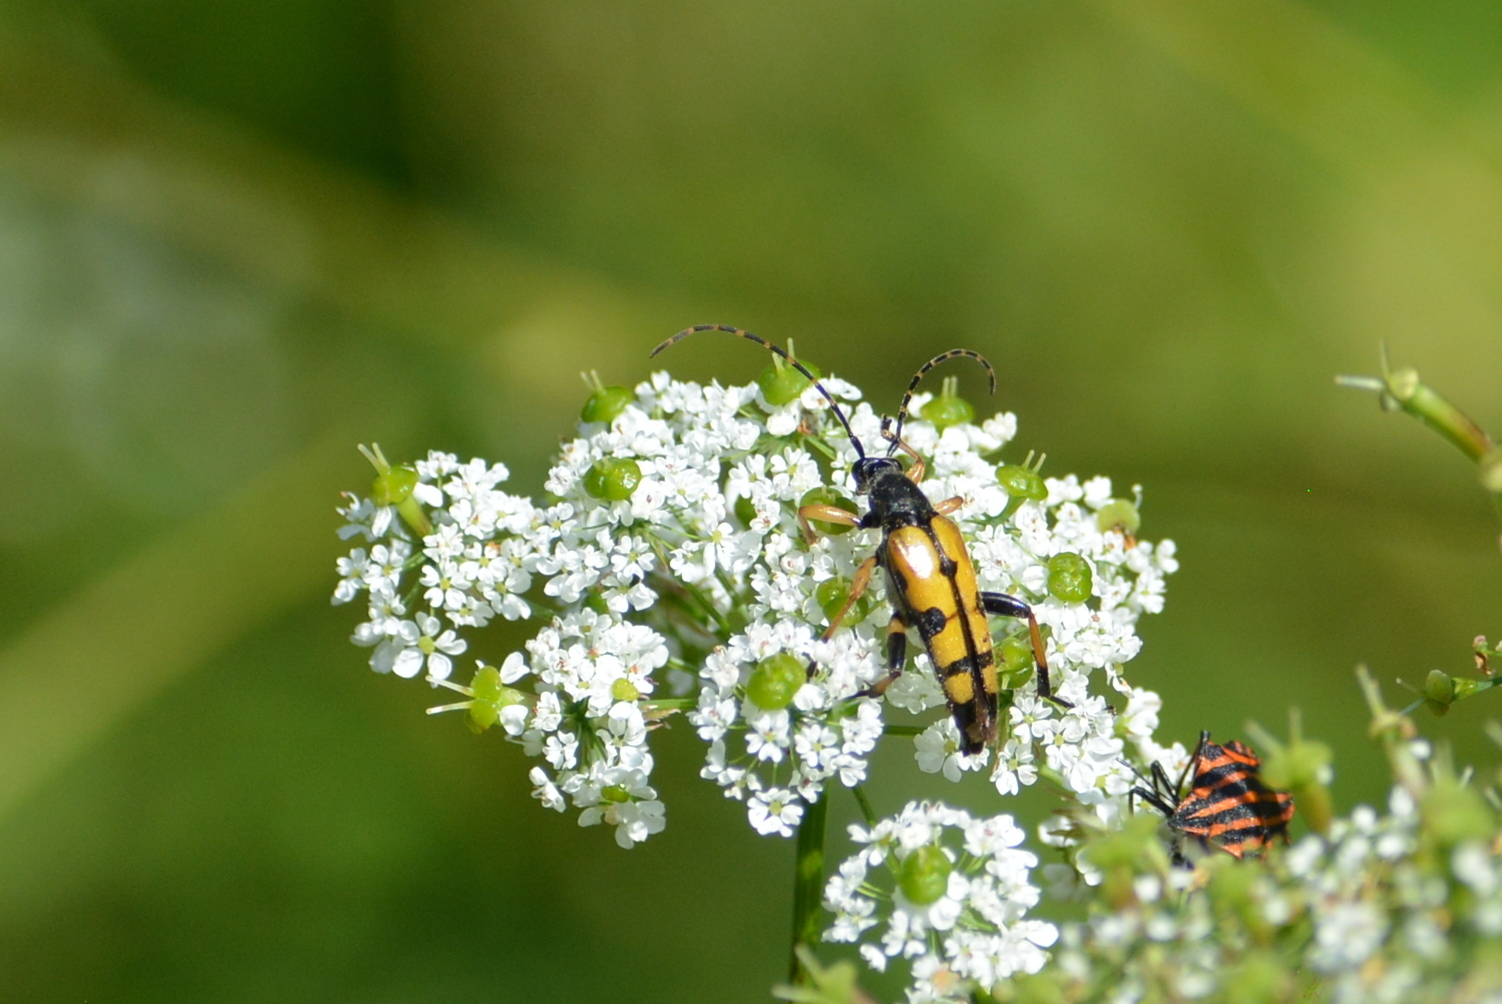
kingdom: Animalia
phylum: Arthropoda
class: Insecta
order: Coleoptera
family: Cerambycidae
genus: Rutpela
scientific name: Rutpela maculata
